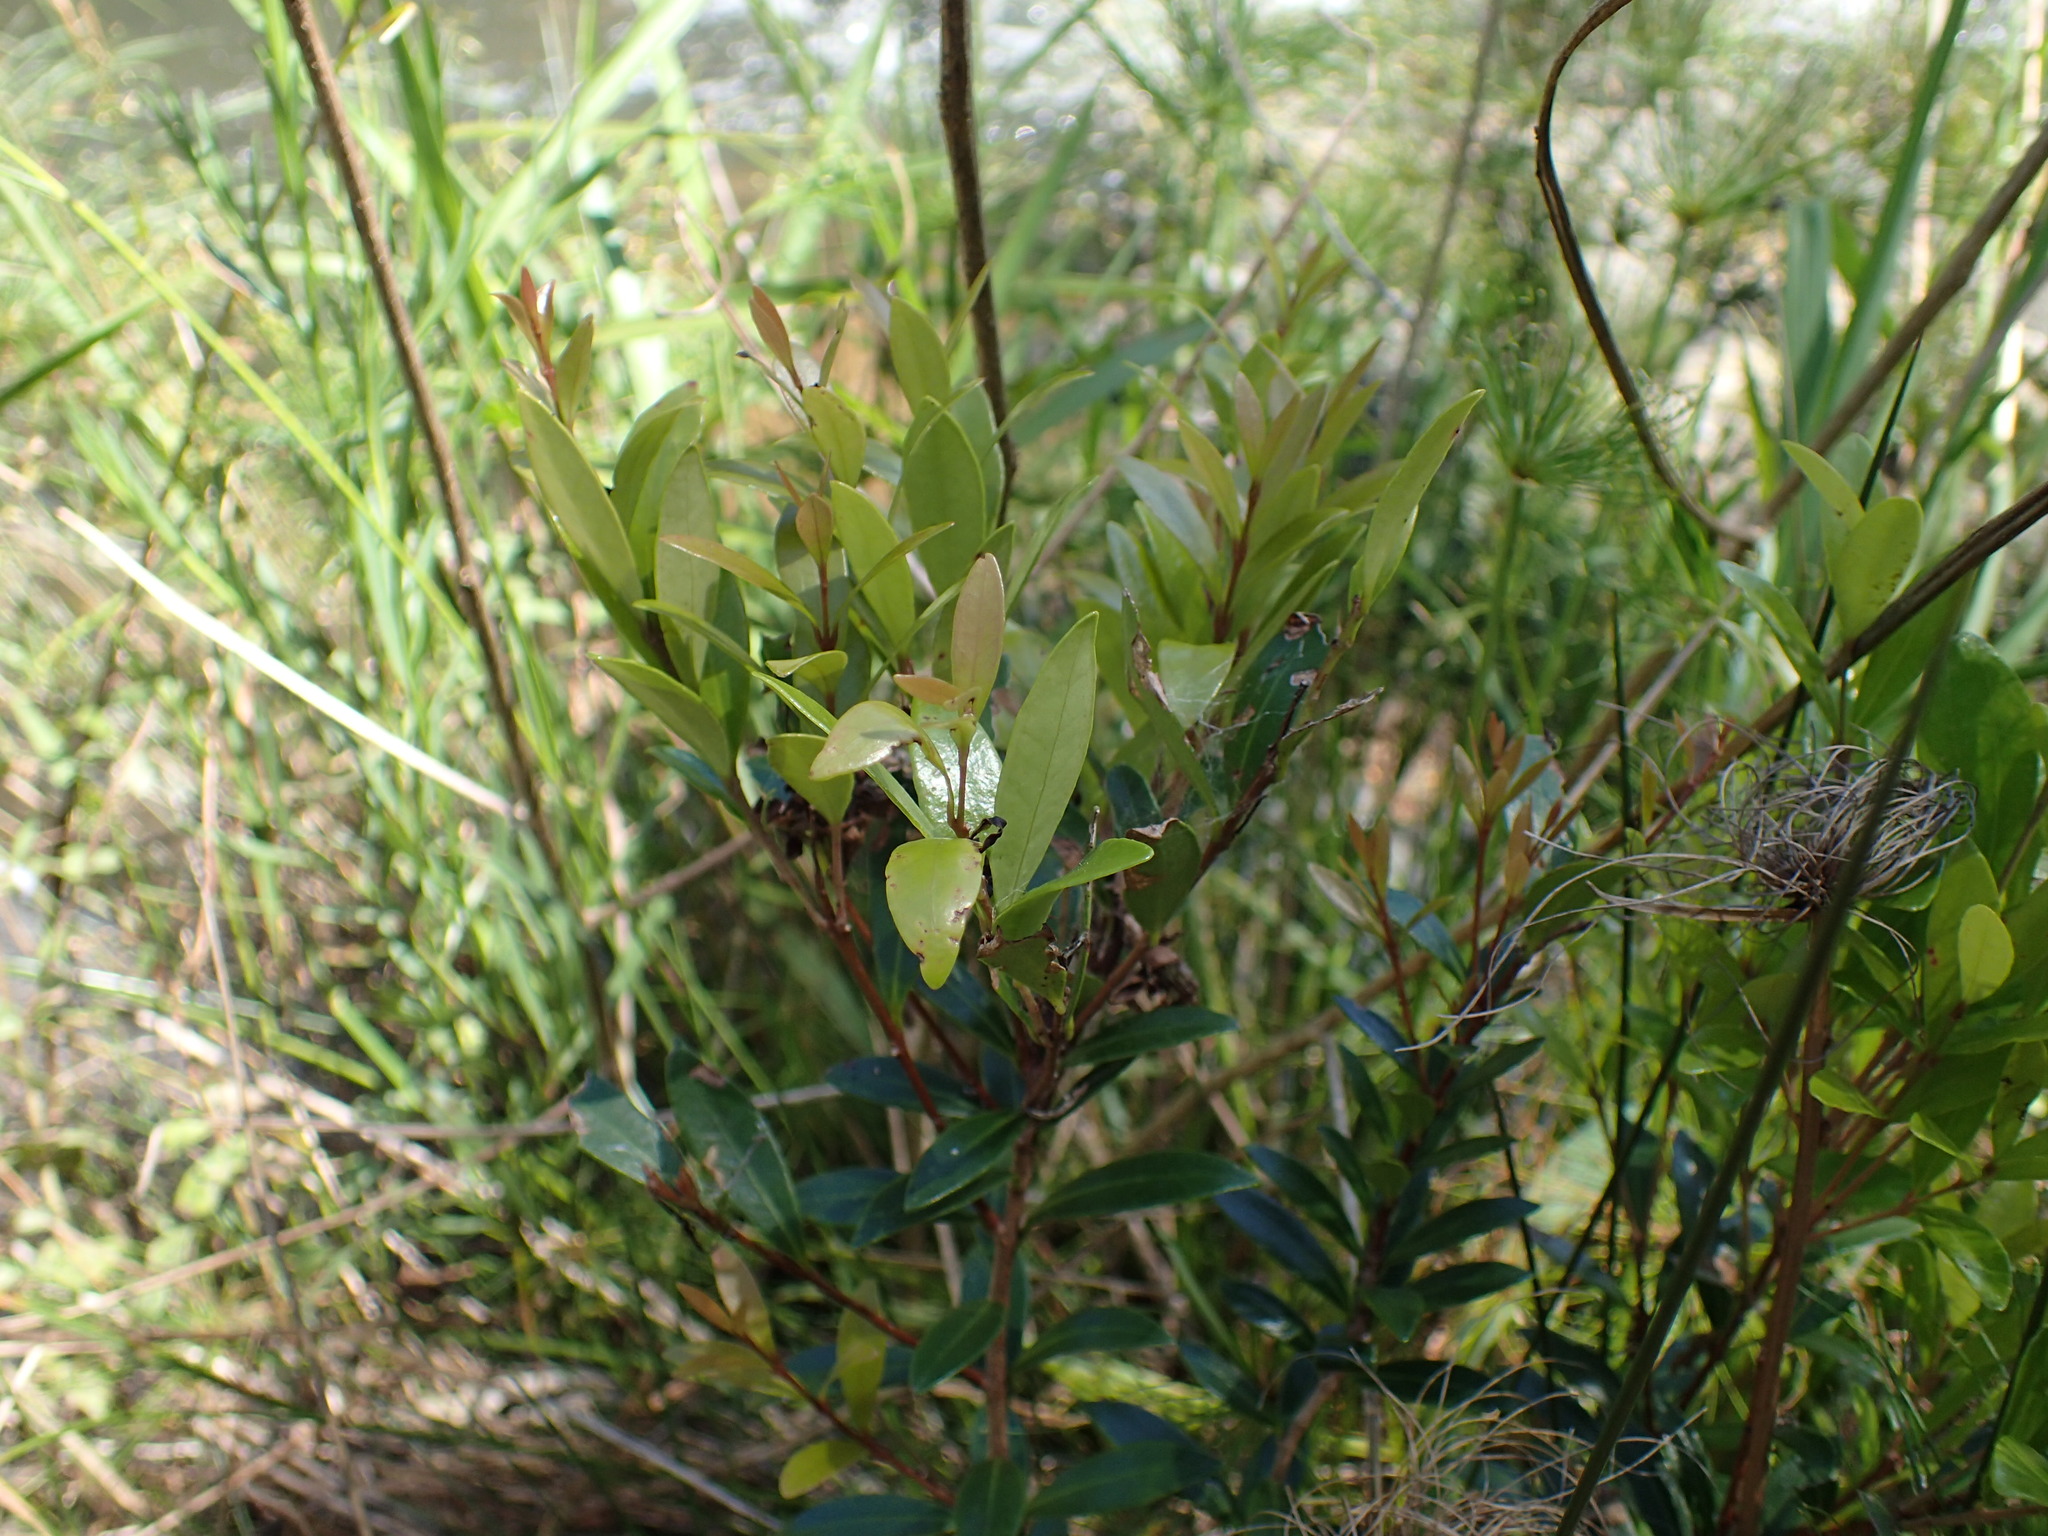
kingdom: Plantae
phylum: Tracheophyta
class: Magnoliopsida
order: Myrtales
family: Myrtaceae
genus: Eugenia
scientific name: Eugenia simii
